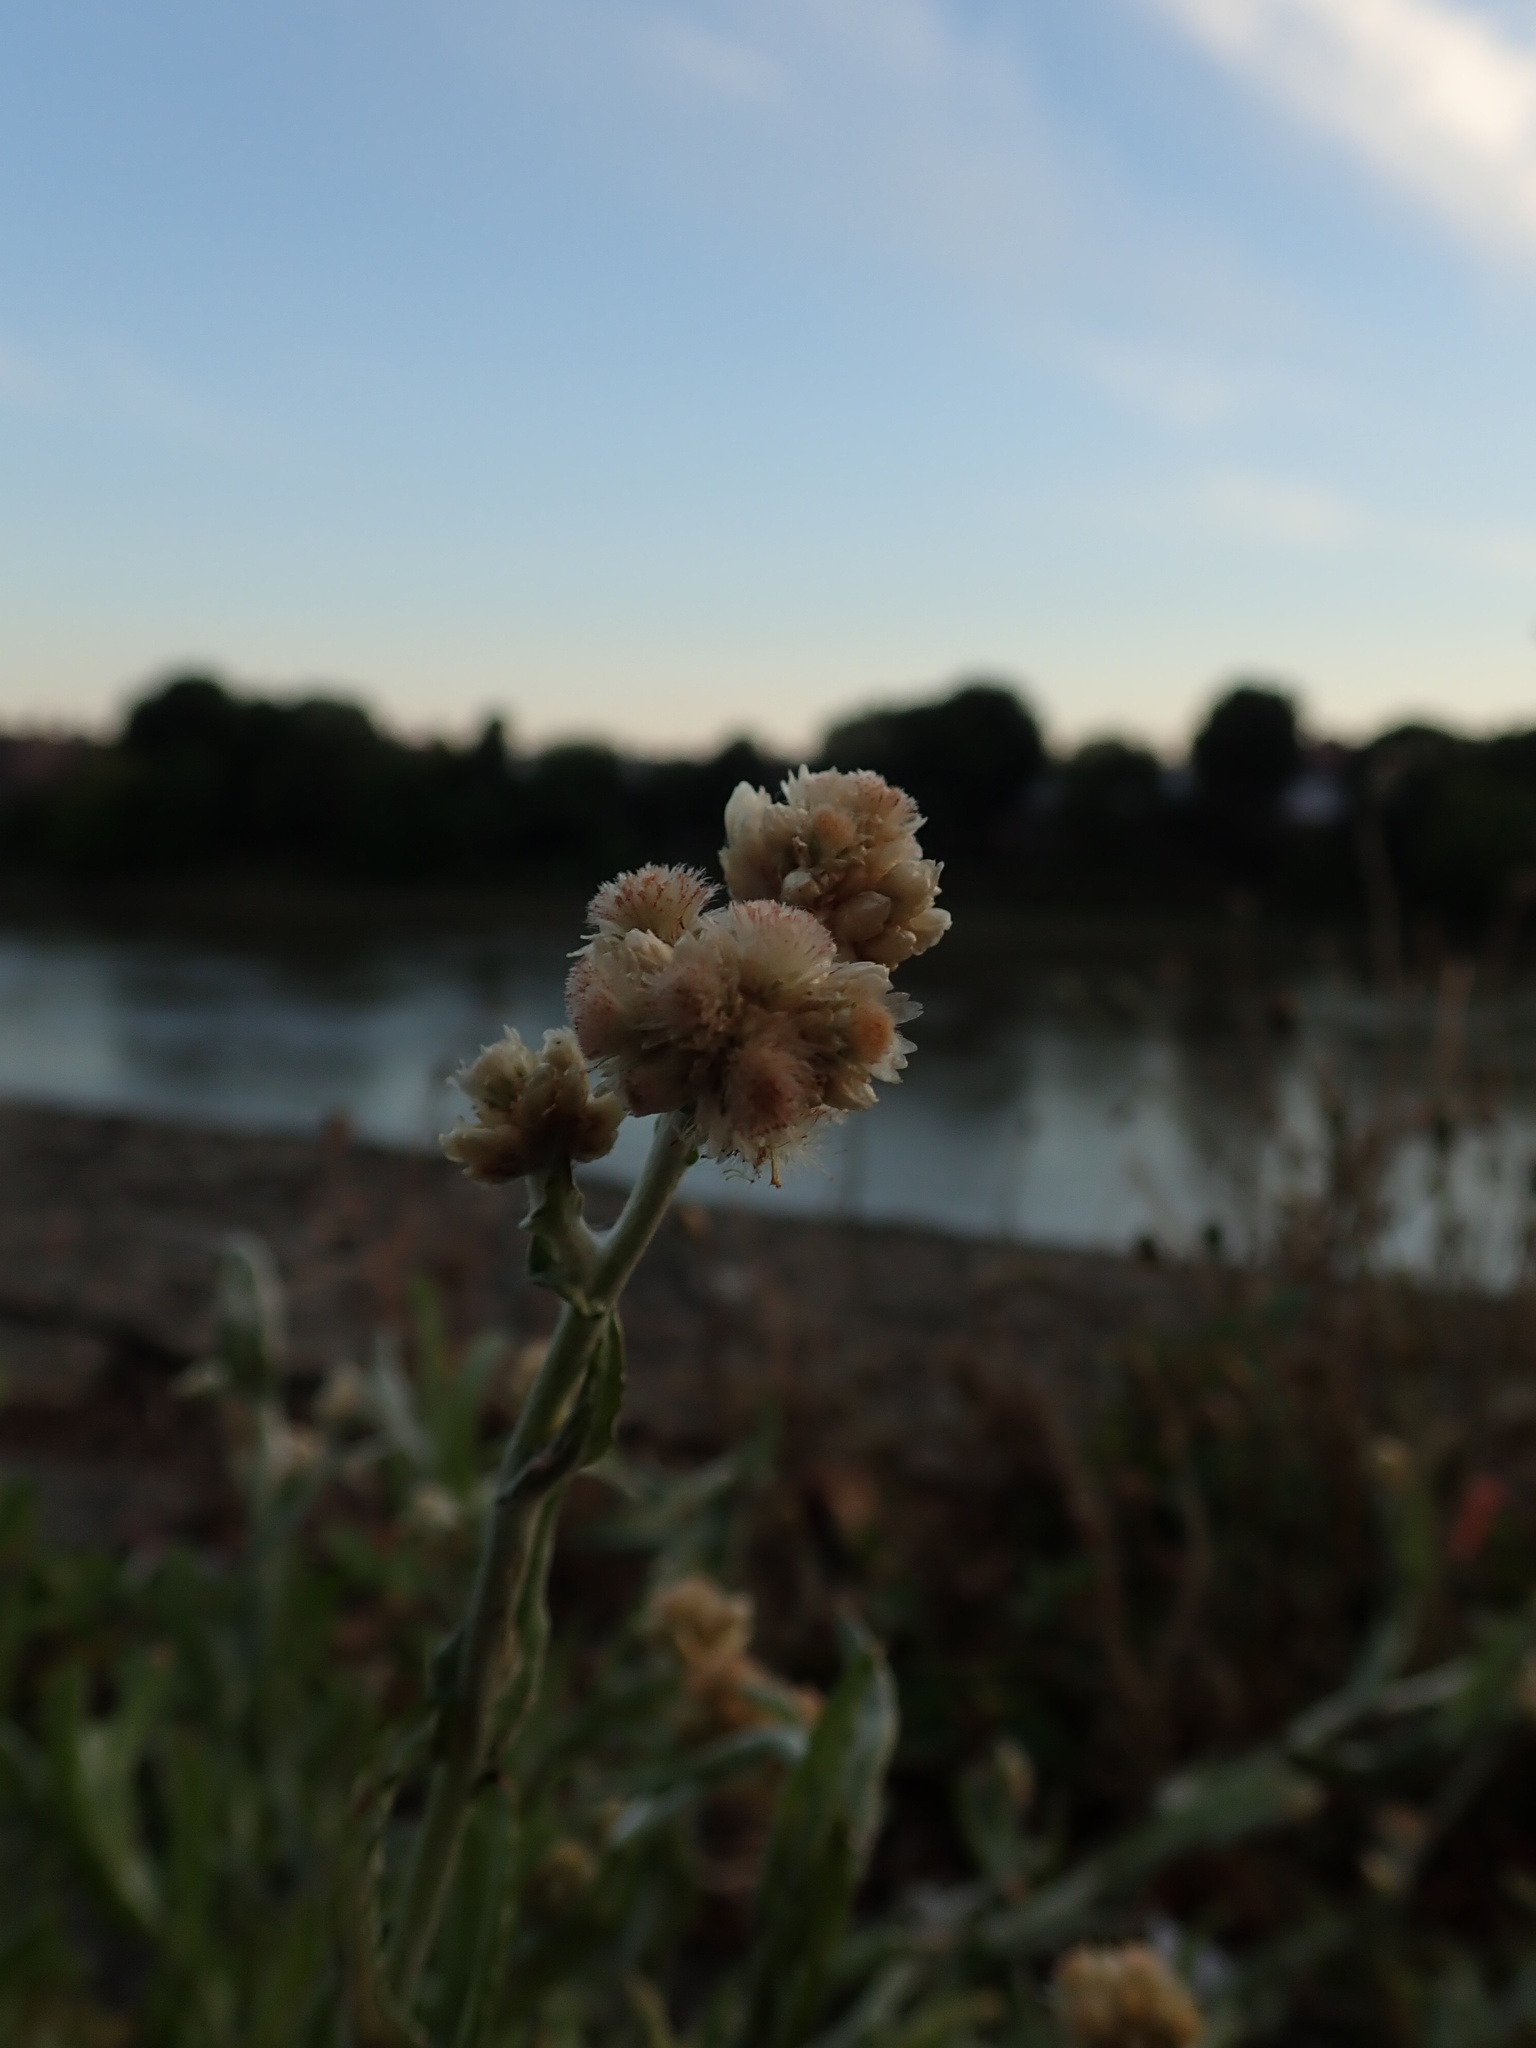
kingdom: Plantae
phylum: Tracheophyta
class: Magnoliopsida
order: Asterales
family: Asteraceae
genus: Helichrysum
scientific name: Helichrysum luteoalbum
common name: Daisy
